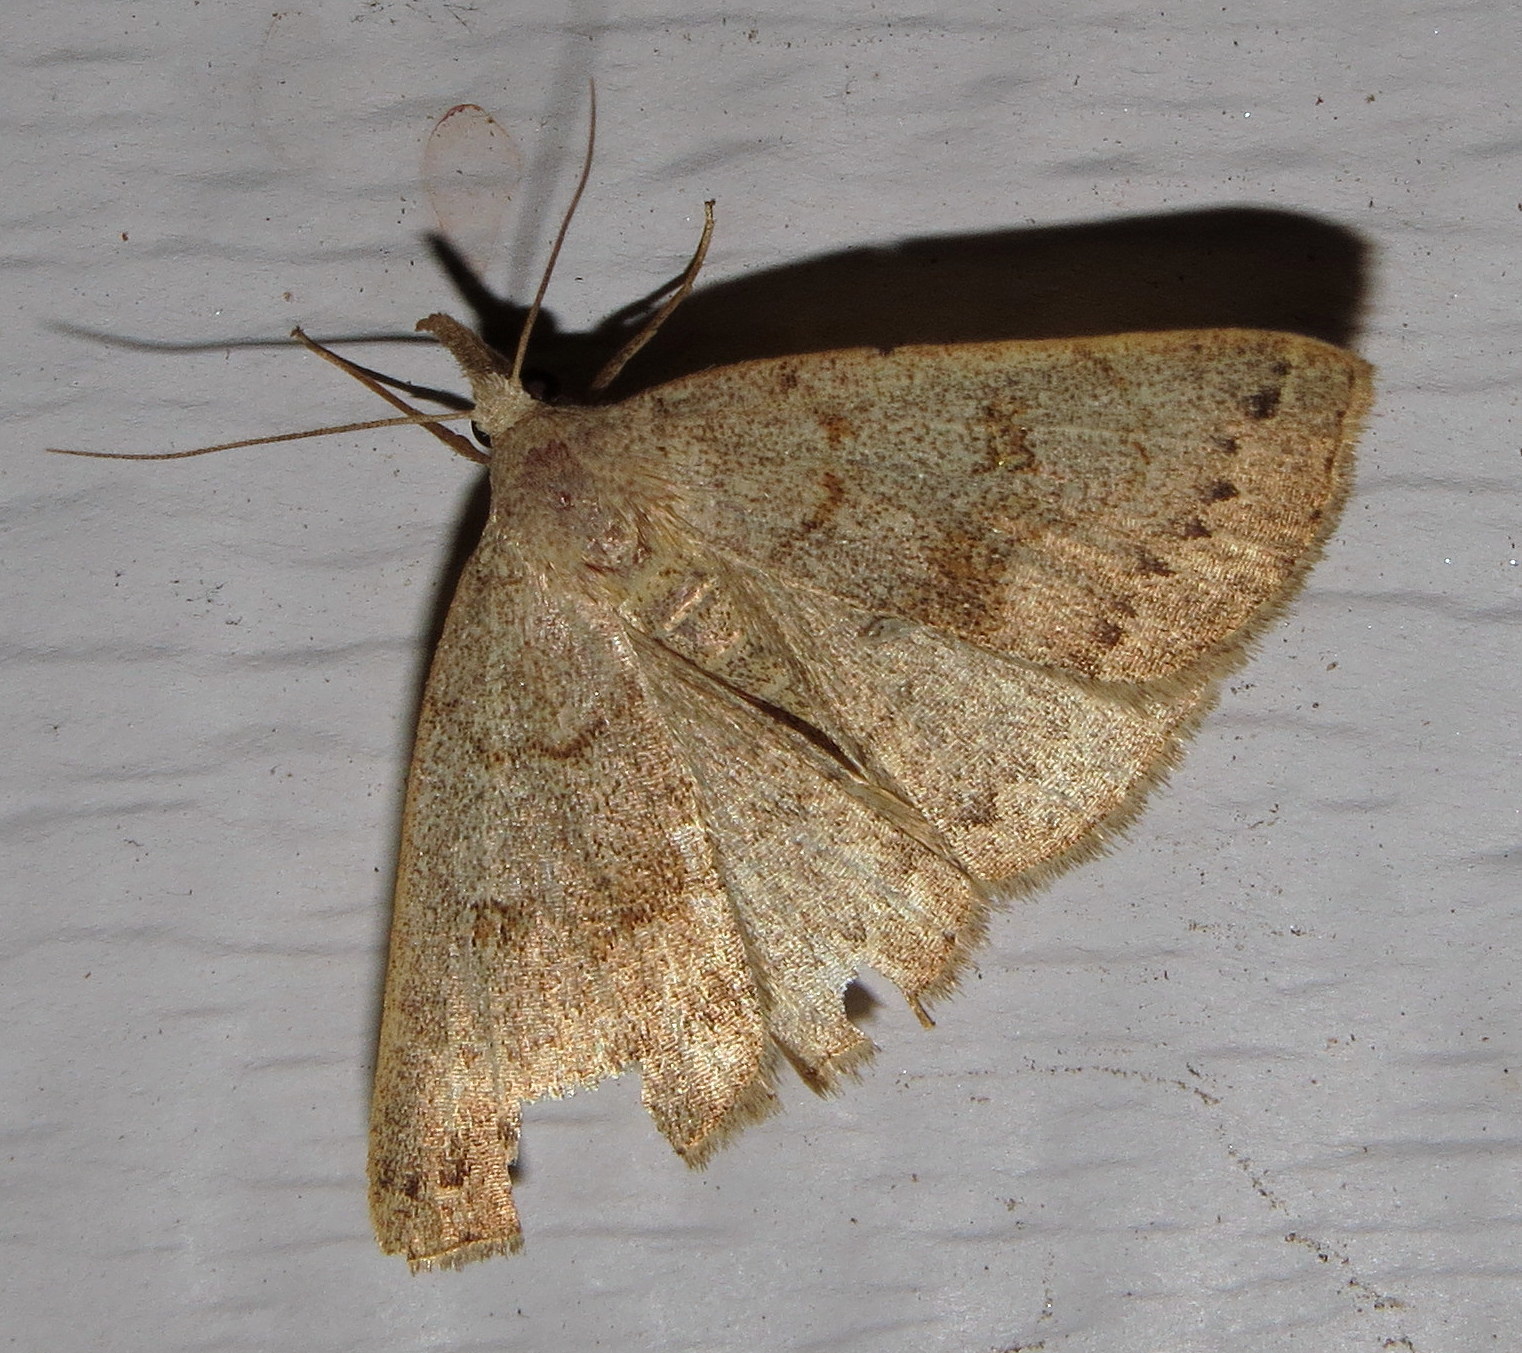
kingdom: Animalia
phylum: Arthropoda
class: Insecta
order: Lepidoptera
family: Erebidae
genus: Macrochilo
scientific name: Macrochilo morbidalis
